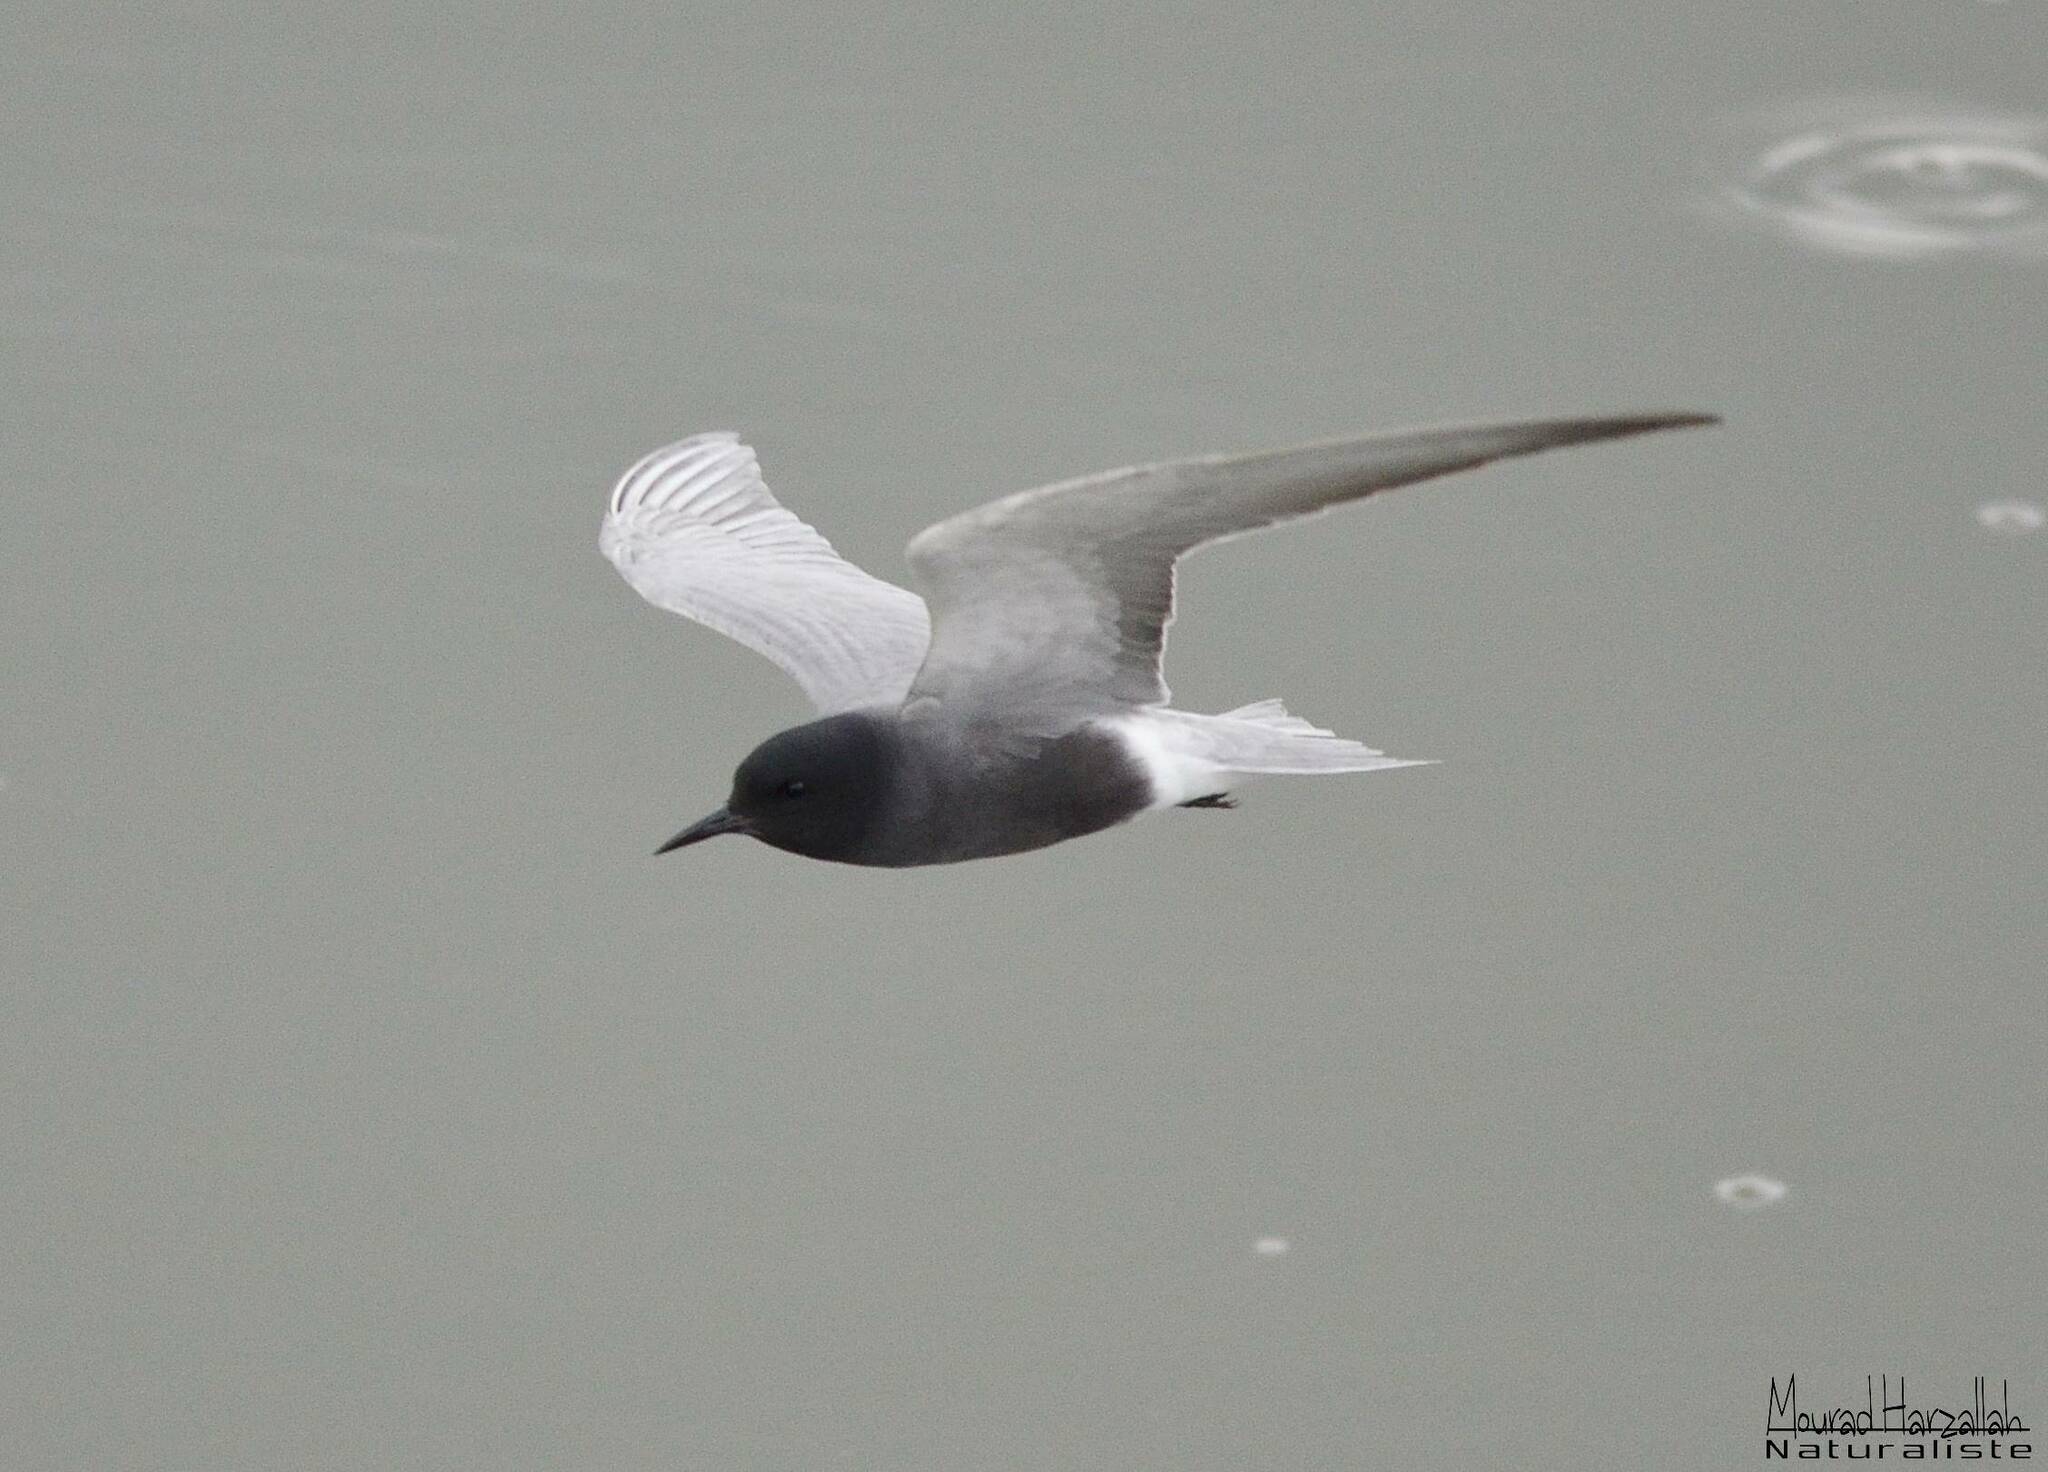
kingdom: Animalia
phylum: Chordata
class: Aves
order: Charadriiformes
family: Laridae
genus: Chlidonias
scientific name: Chlidonias niger
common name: Black tern
